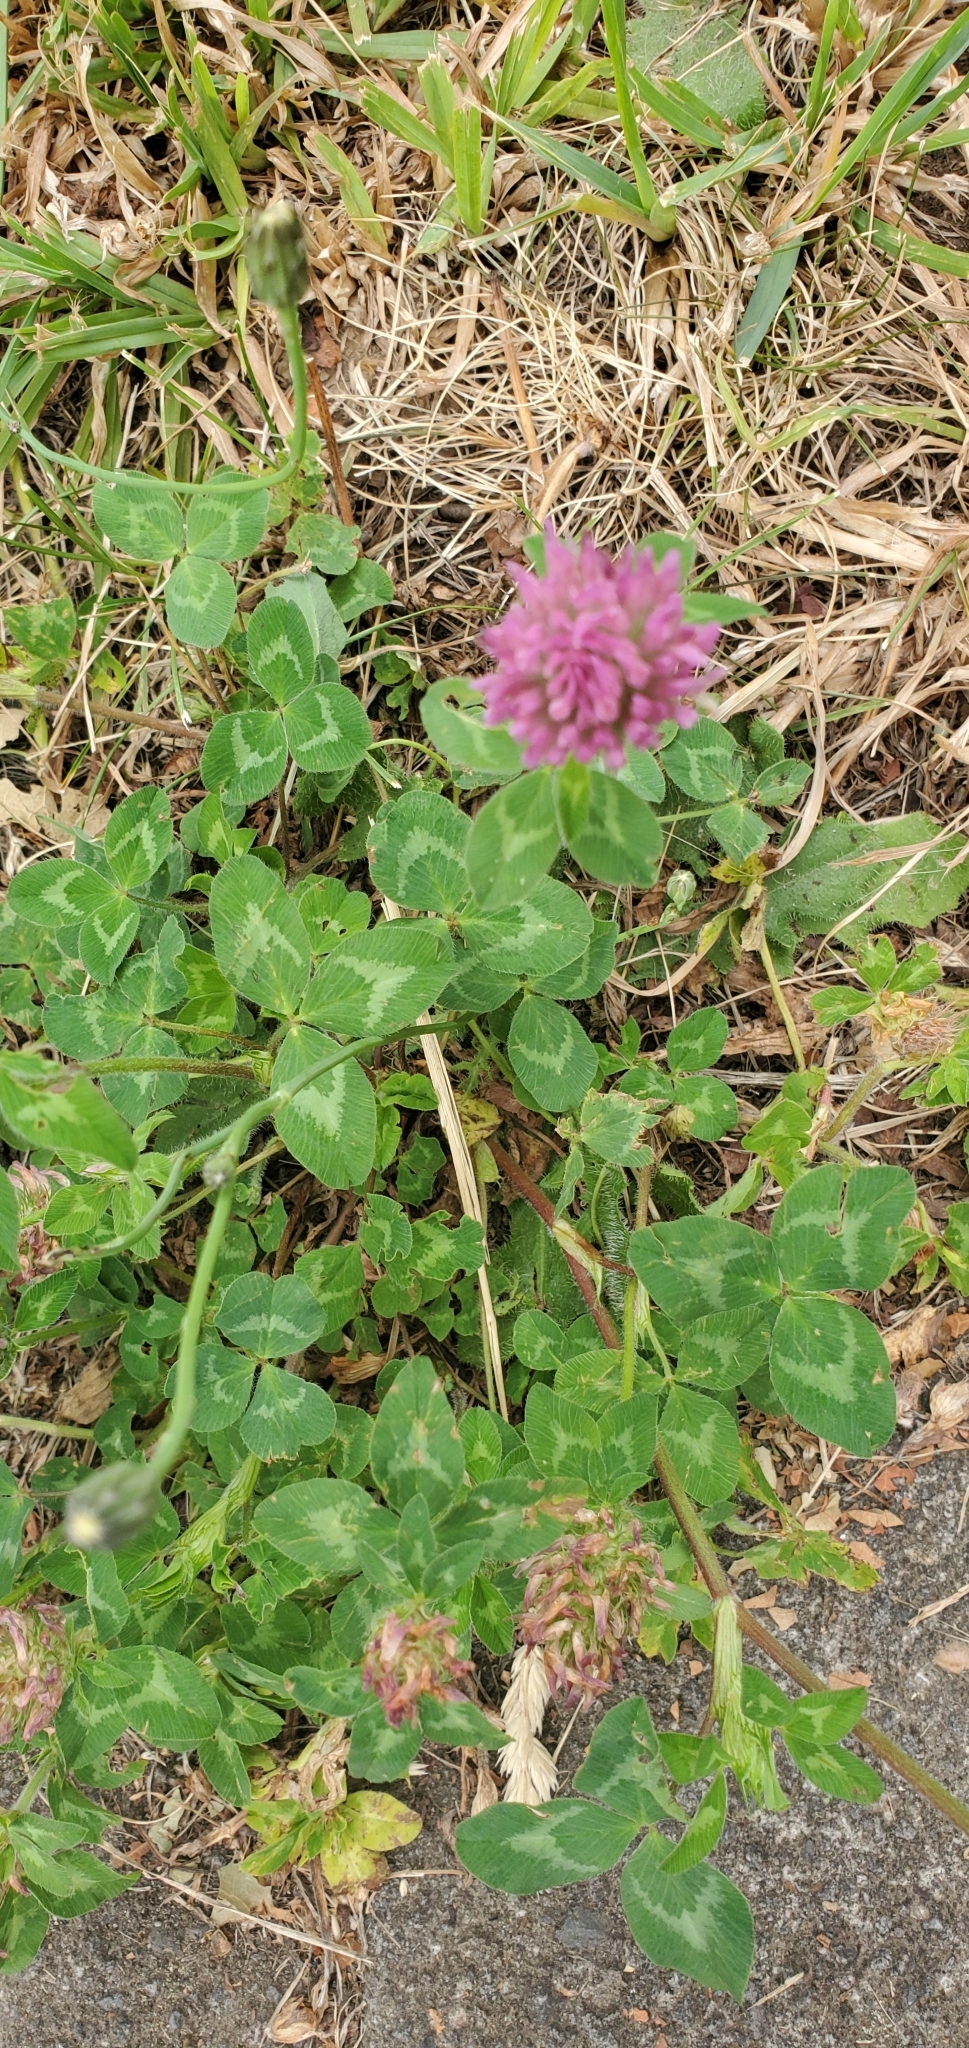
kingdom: Plantae
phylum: Tracheophyta
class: Magnoliopsida
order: Fabales
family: Fabaceae
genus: Trifolium
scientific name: Trifolium pratense
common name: Red clover
